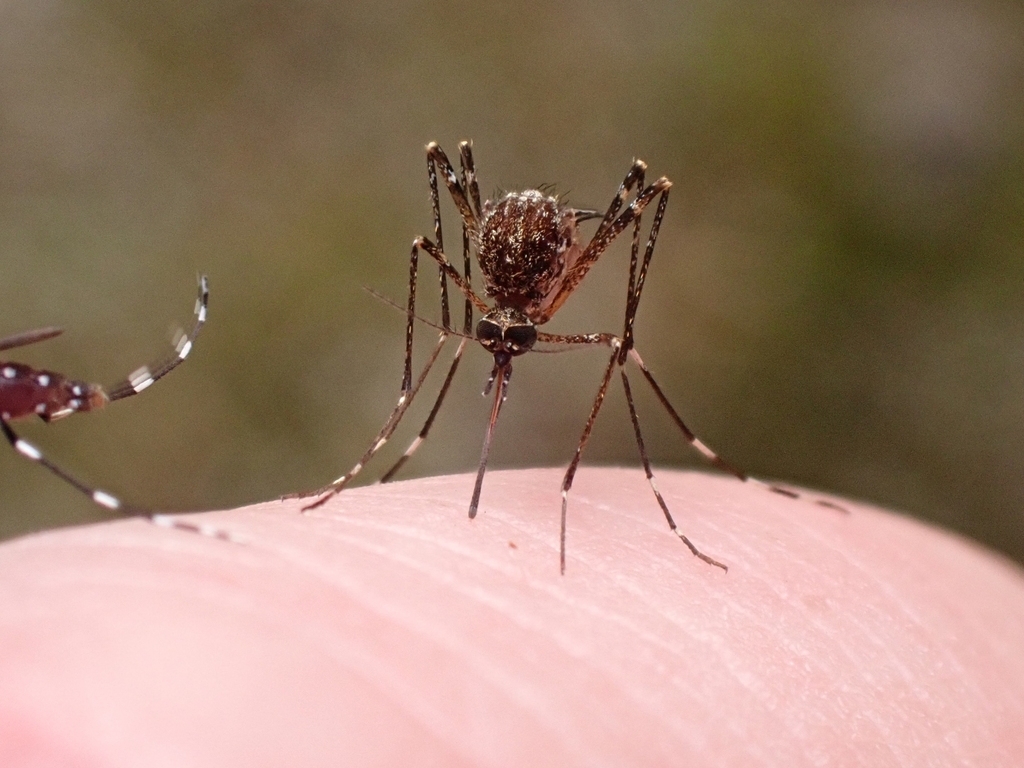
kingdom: Animalia
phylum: Arthropoda
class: Insecta
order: Diptera
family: Culicidae
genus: Aedes
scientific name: Aedes alboannulatus
